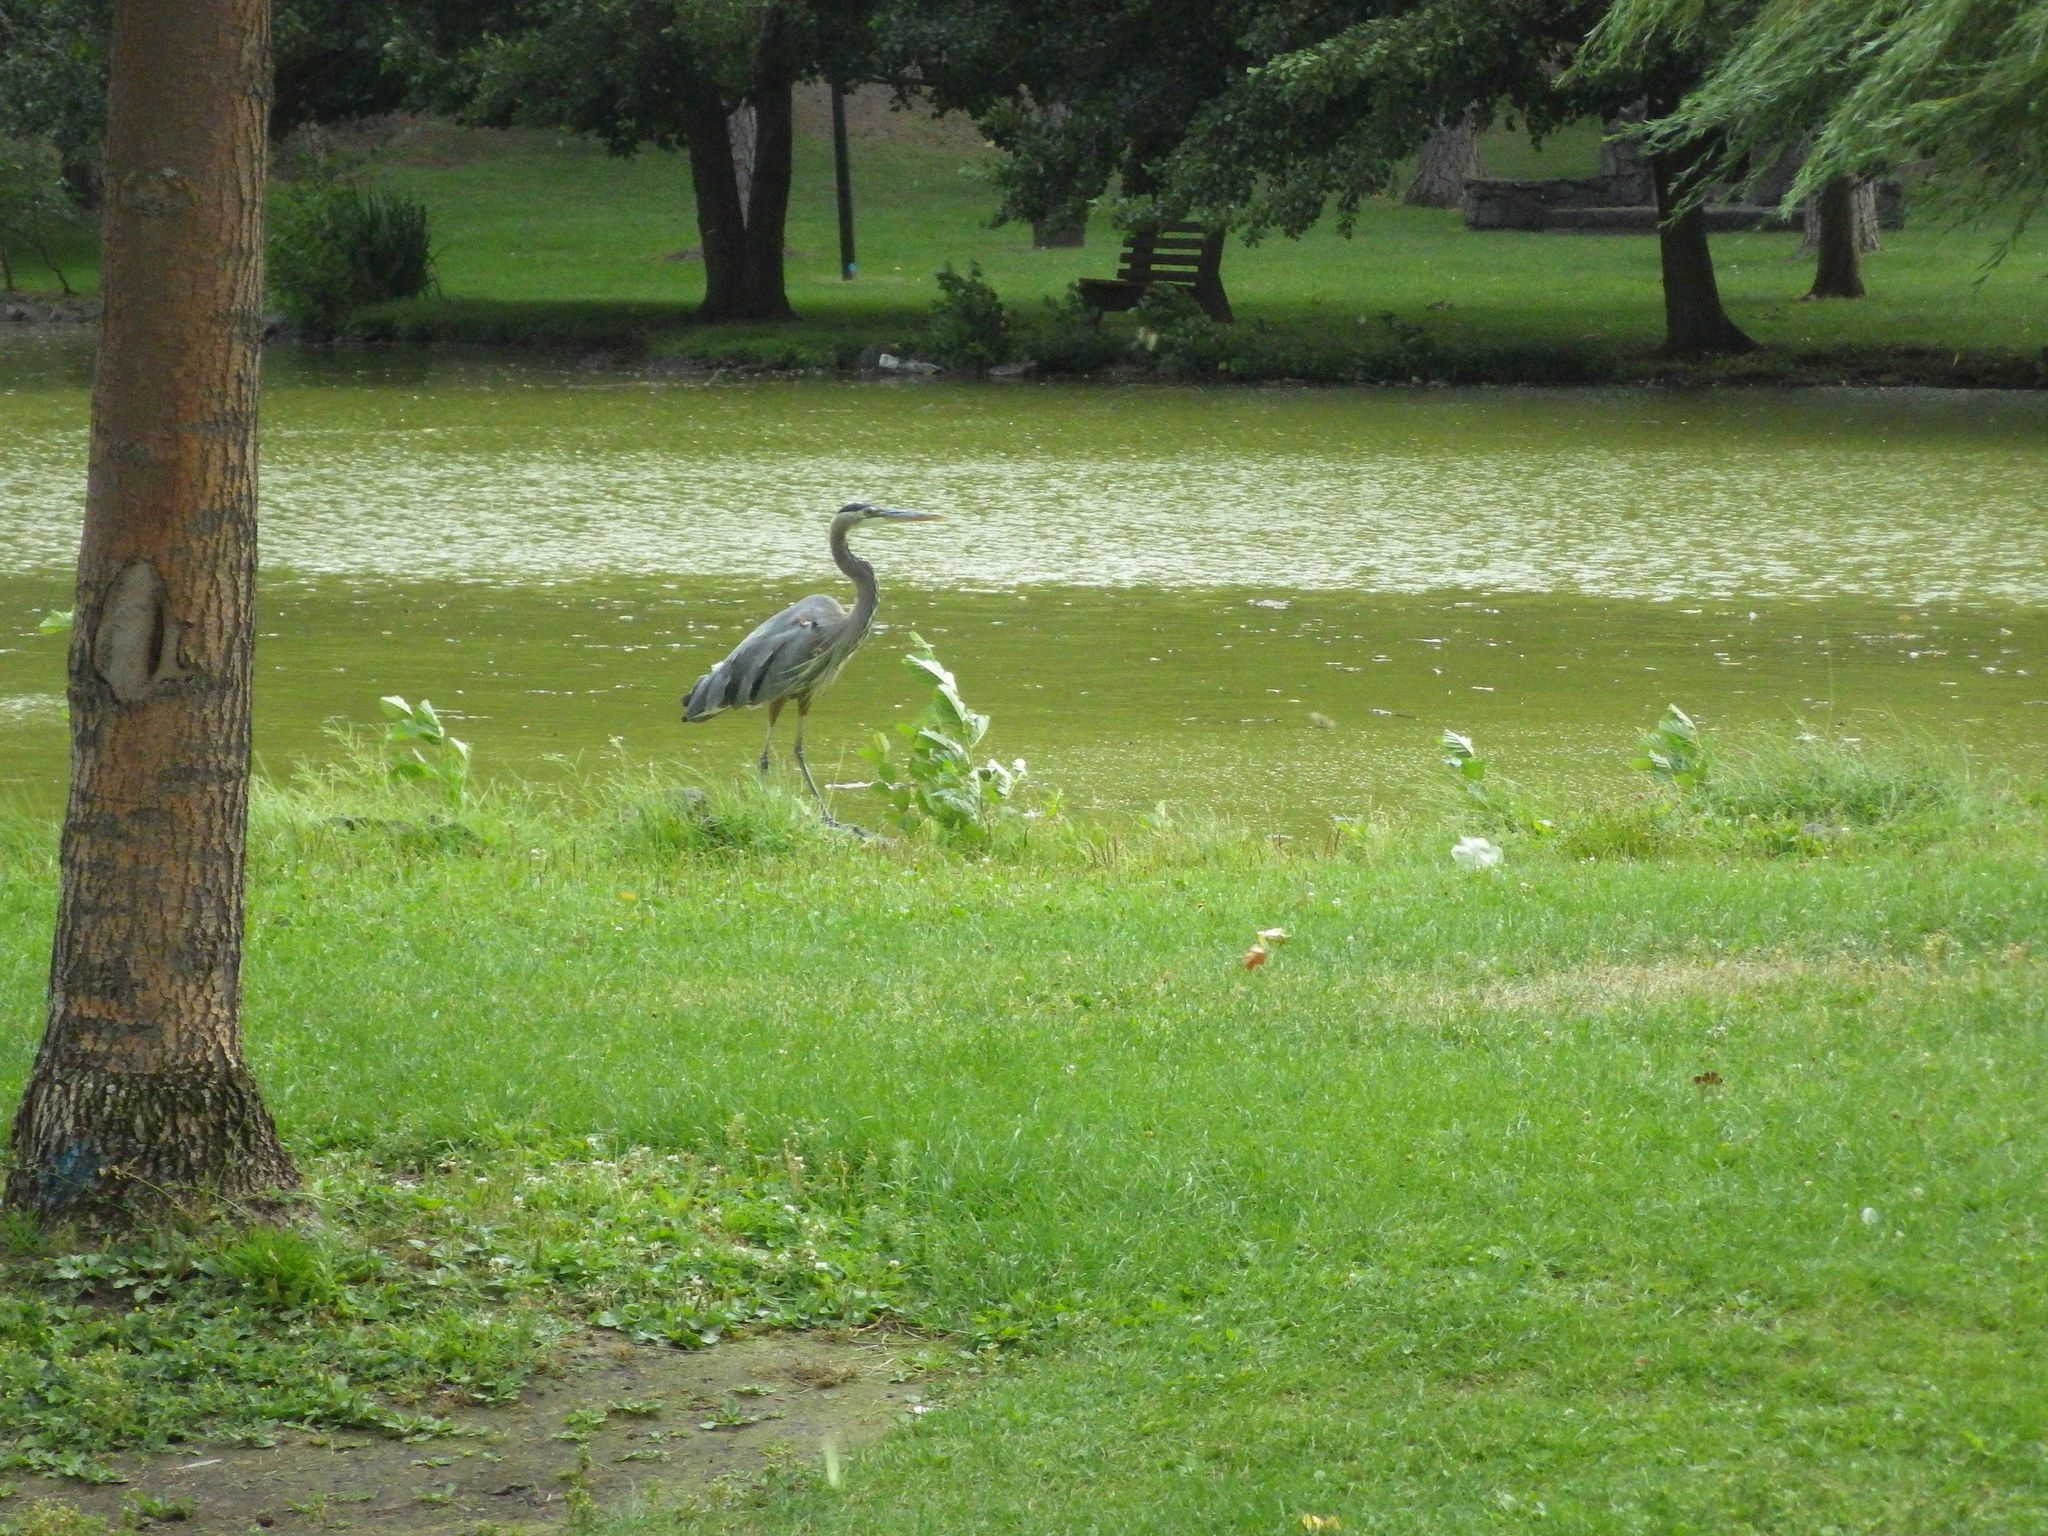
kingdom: Animalia
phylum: Chordata
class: Aves
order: Pelecaniformes
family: Ardeidae
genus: Ardea
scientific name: Ardea herodias
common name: Great blue heron
